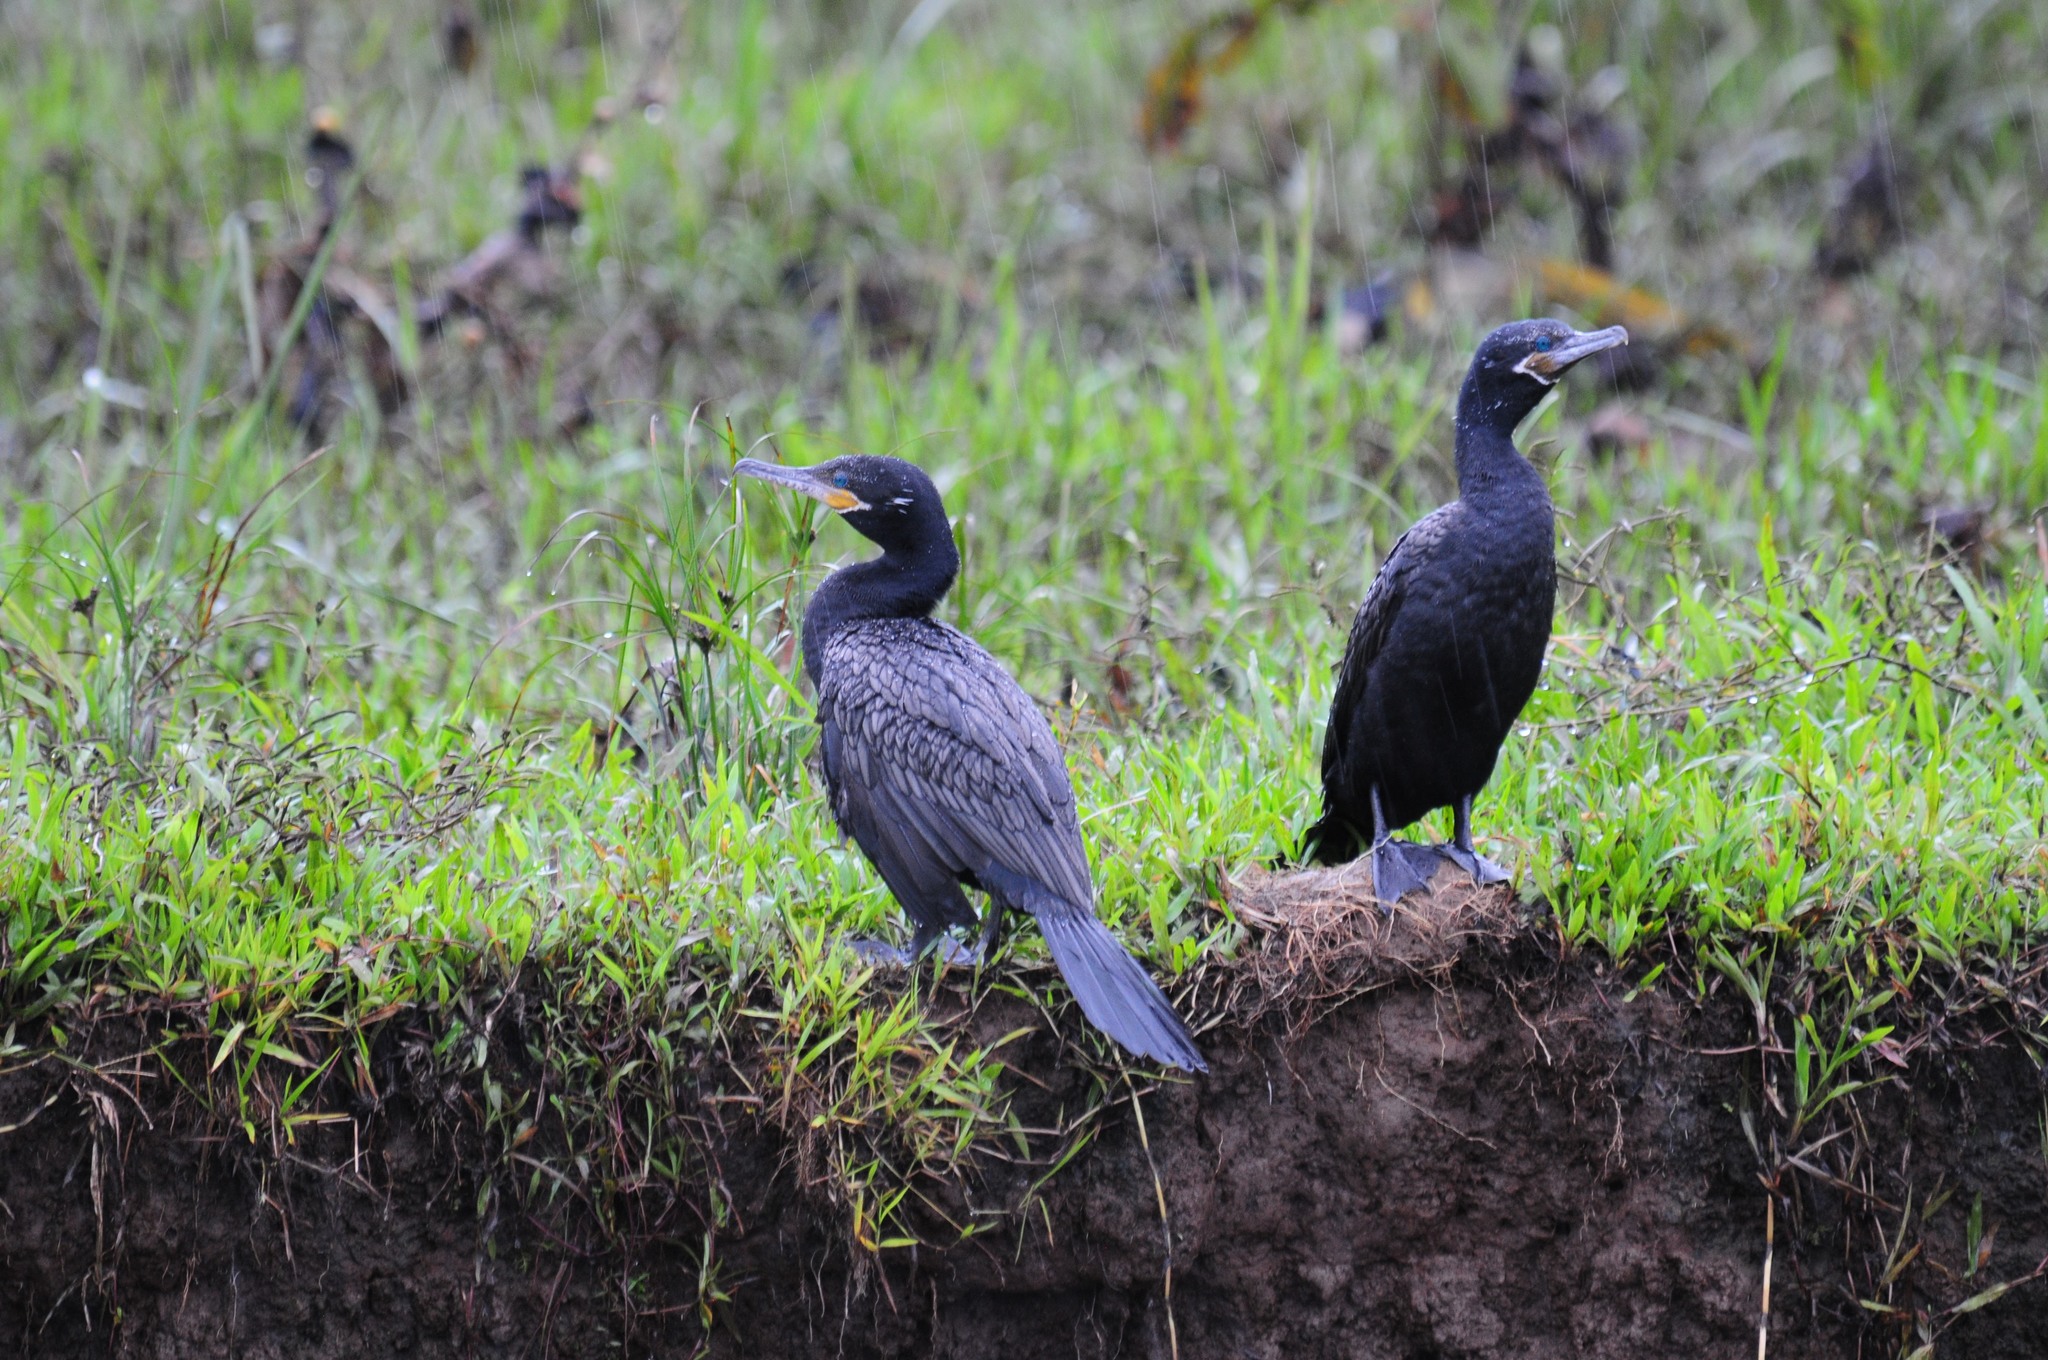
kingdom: Animalia
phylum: Chordata
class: Aves
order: Suliformes
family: Phalacrocoracidae
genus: Phalacrocorax
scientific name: Phalacrocorax brasilianus
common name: Neotropic cormorant
